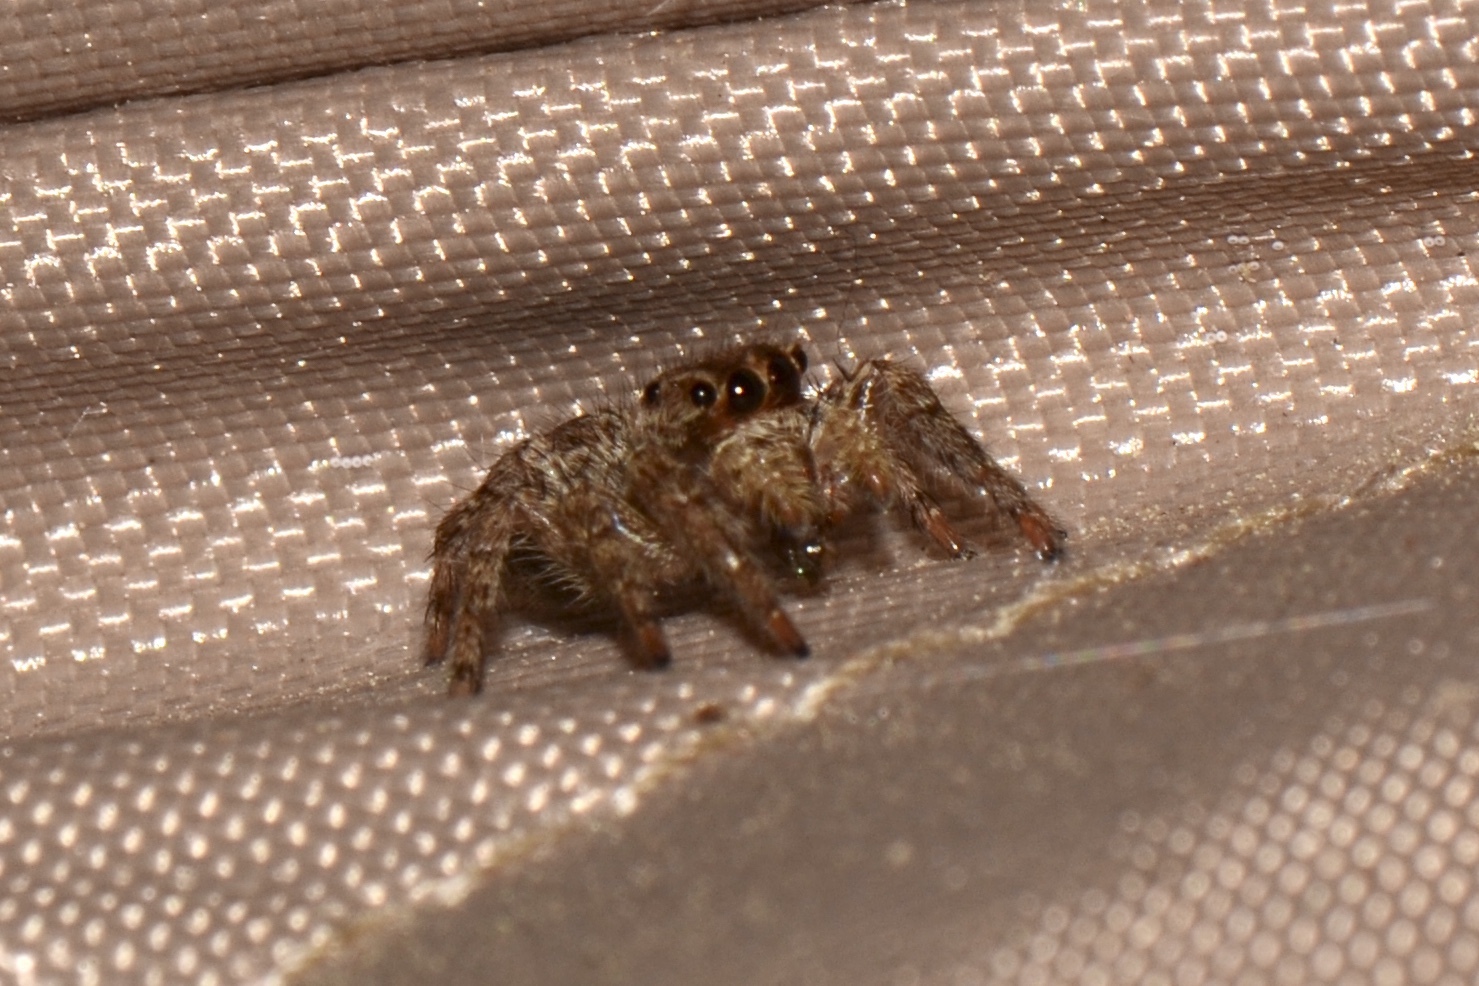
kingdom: Animalia
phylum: Arthropoda
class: Arachnida
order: Araneae
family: Salticidae
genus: Plexippus
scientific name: Plexippus paykulli
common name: Pantropical jumper
